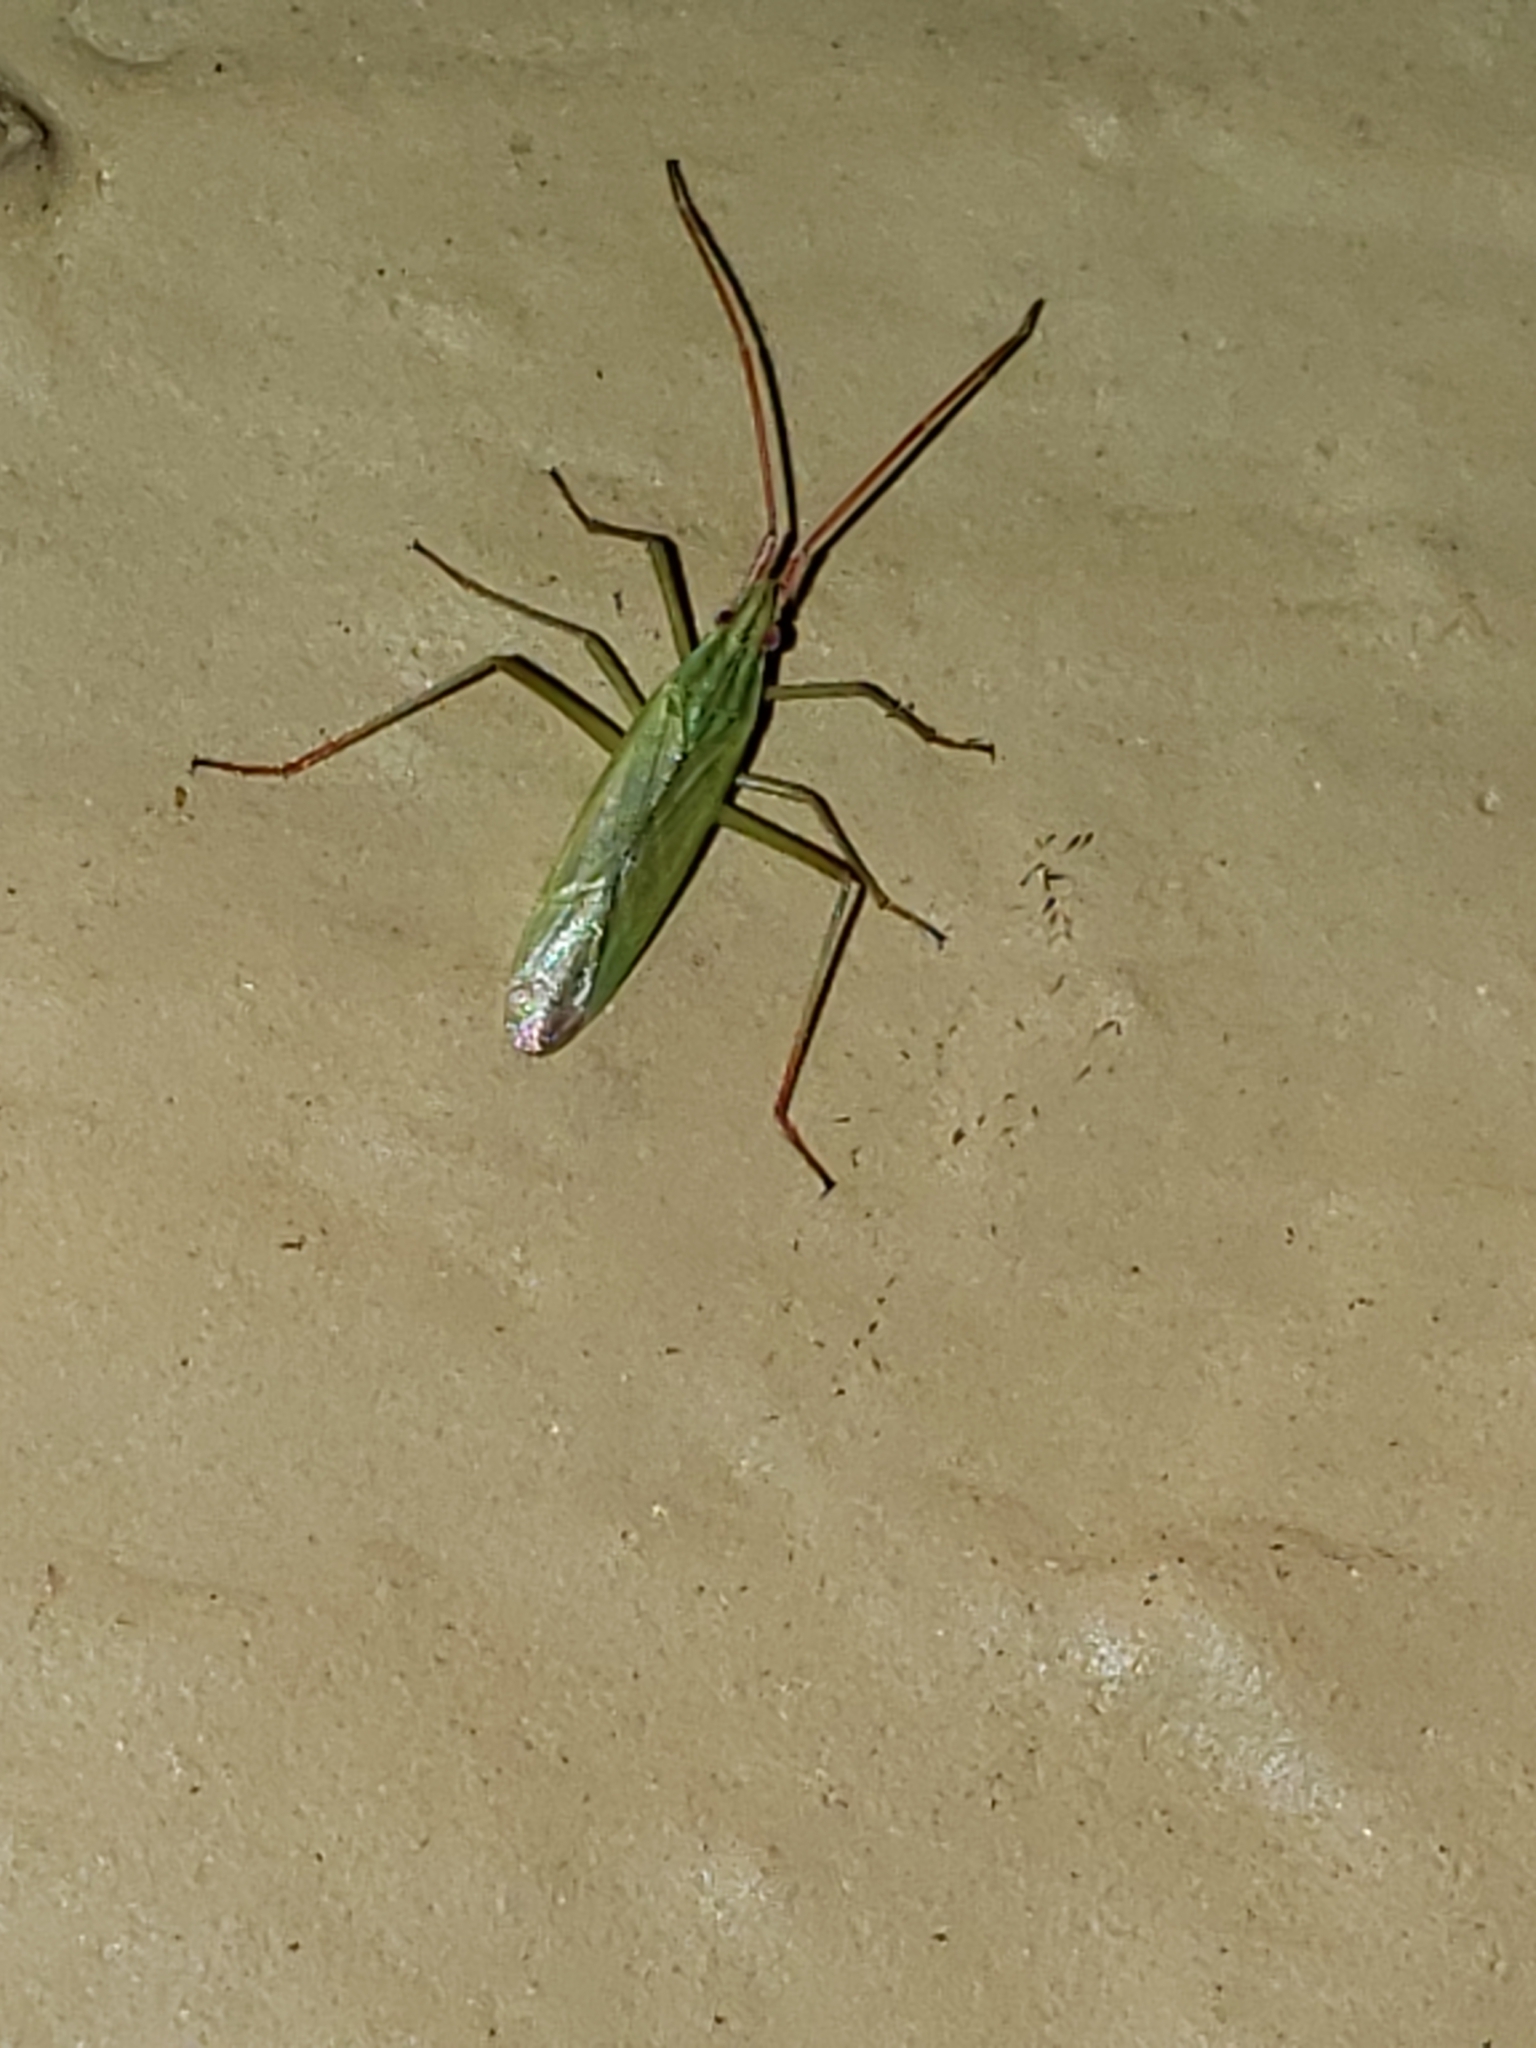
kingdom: Animalia
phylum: Arthropoda
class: Insecta
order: Hemiptera
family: Miridae
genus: Trigonotylus
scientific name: Trigonotylus caelestialium
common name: Rice leaf bug
